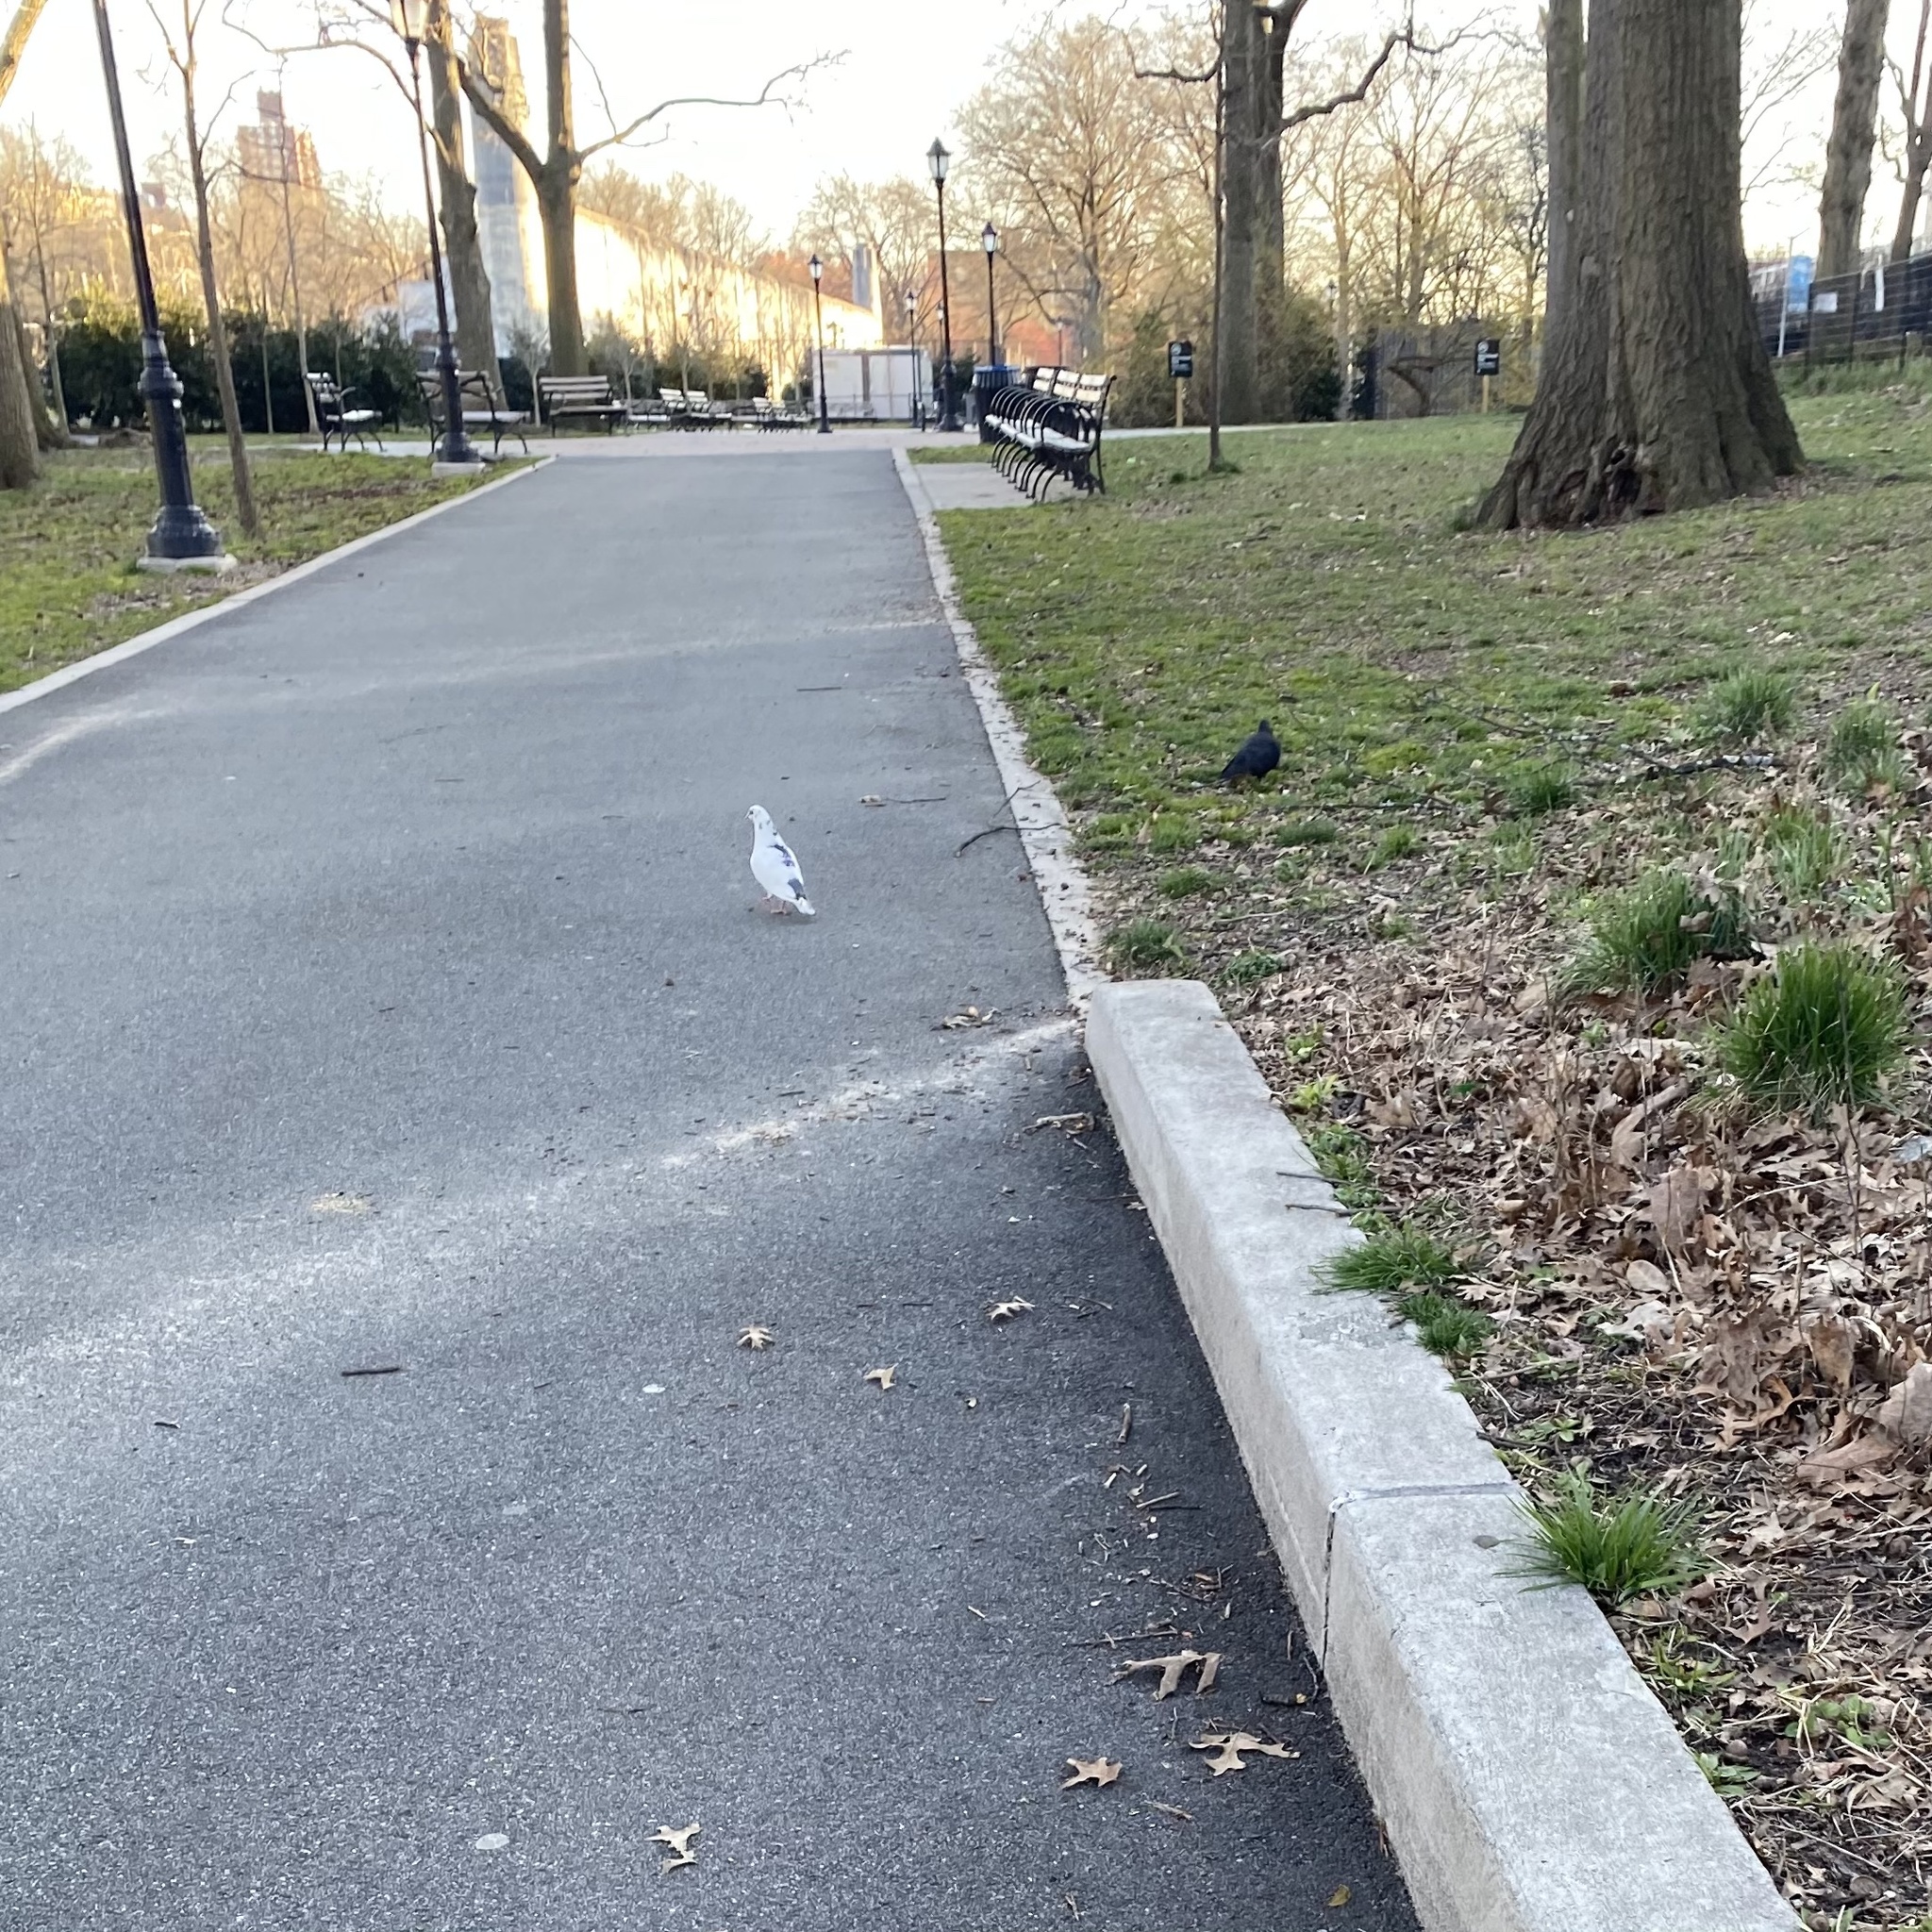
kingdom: Animalia
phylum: Chordata
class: Aves
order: Columbiformes
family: Columbidae
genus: Columba
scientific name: Columba livia
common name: Rock pigeon
